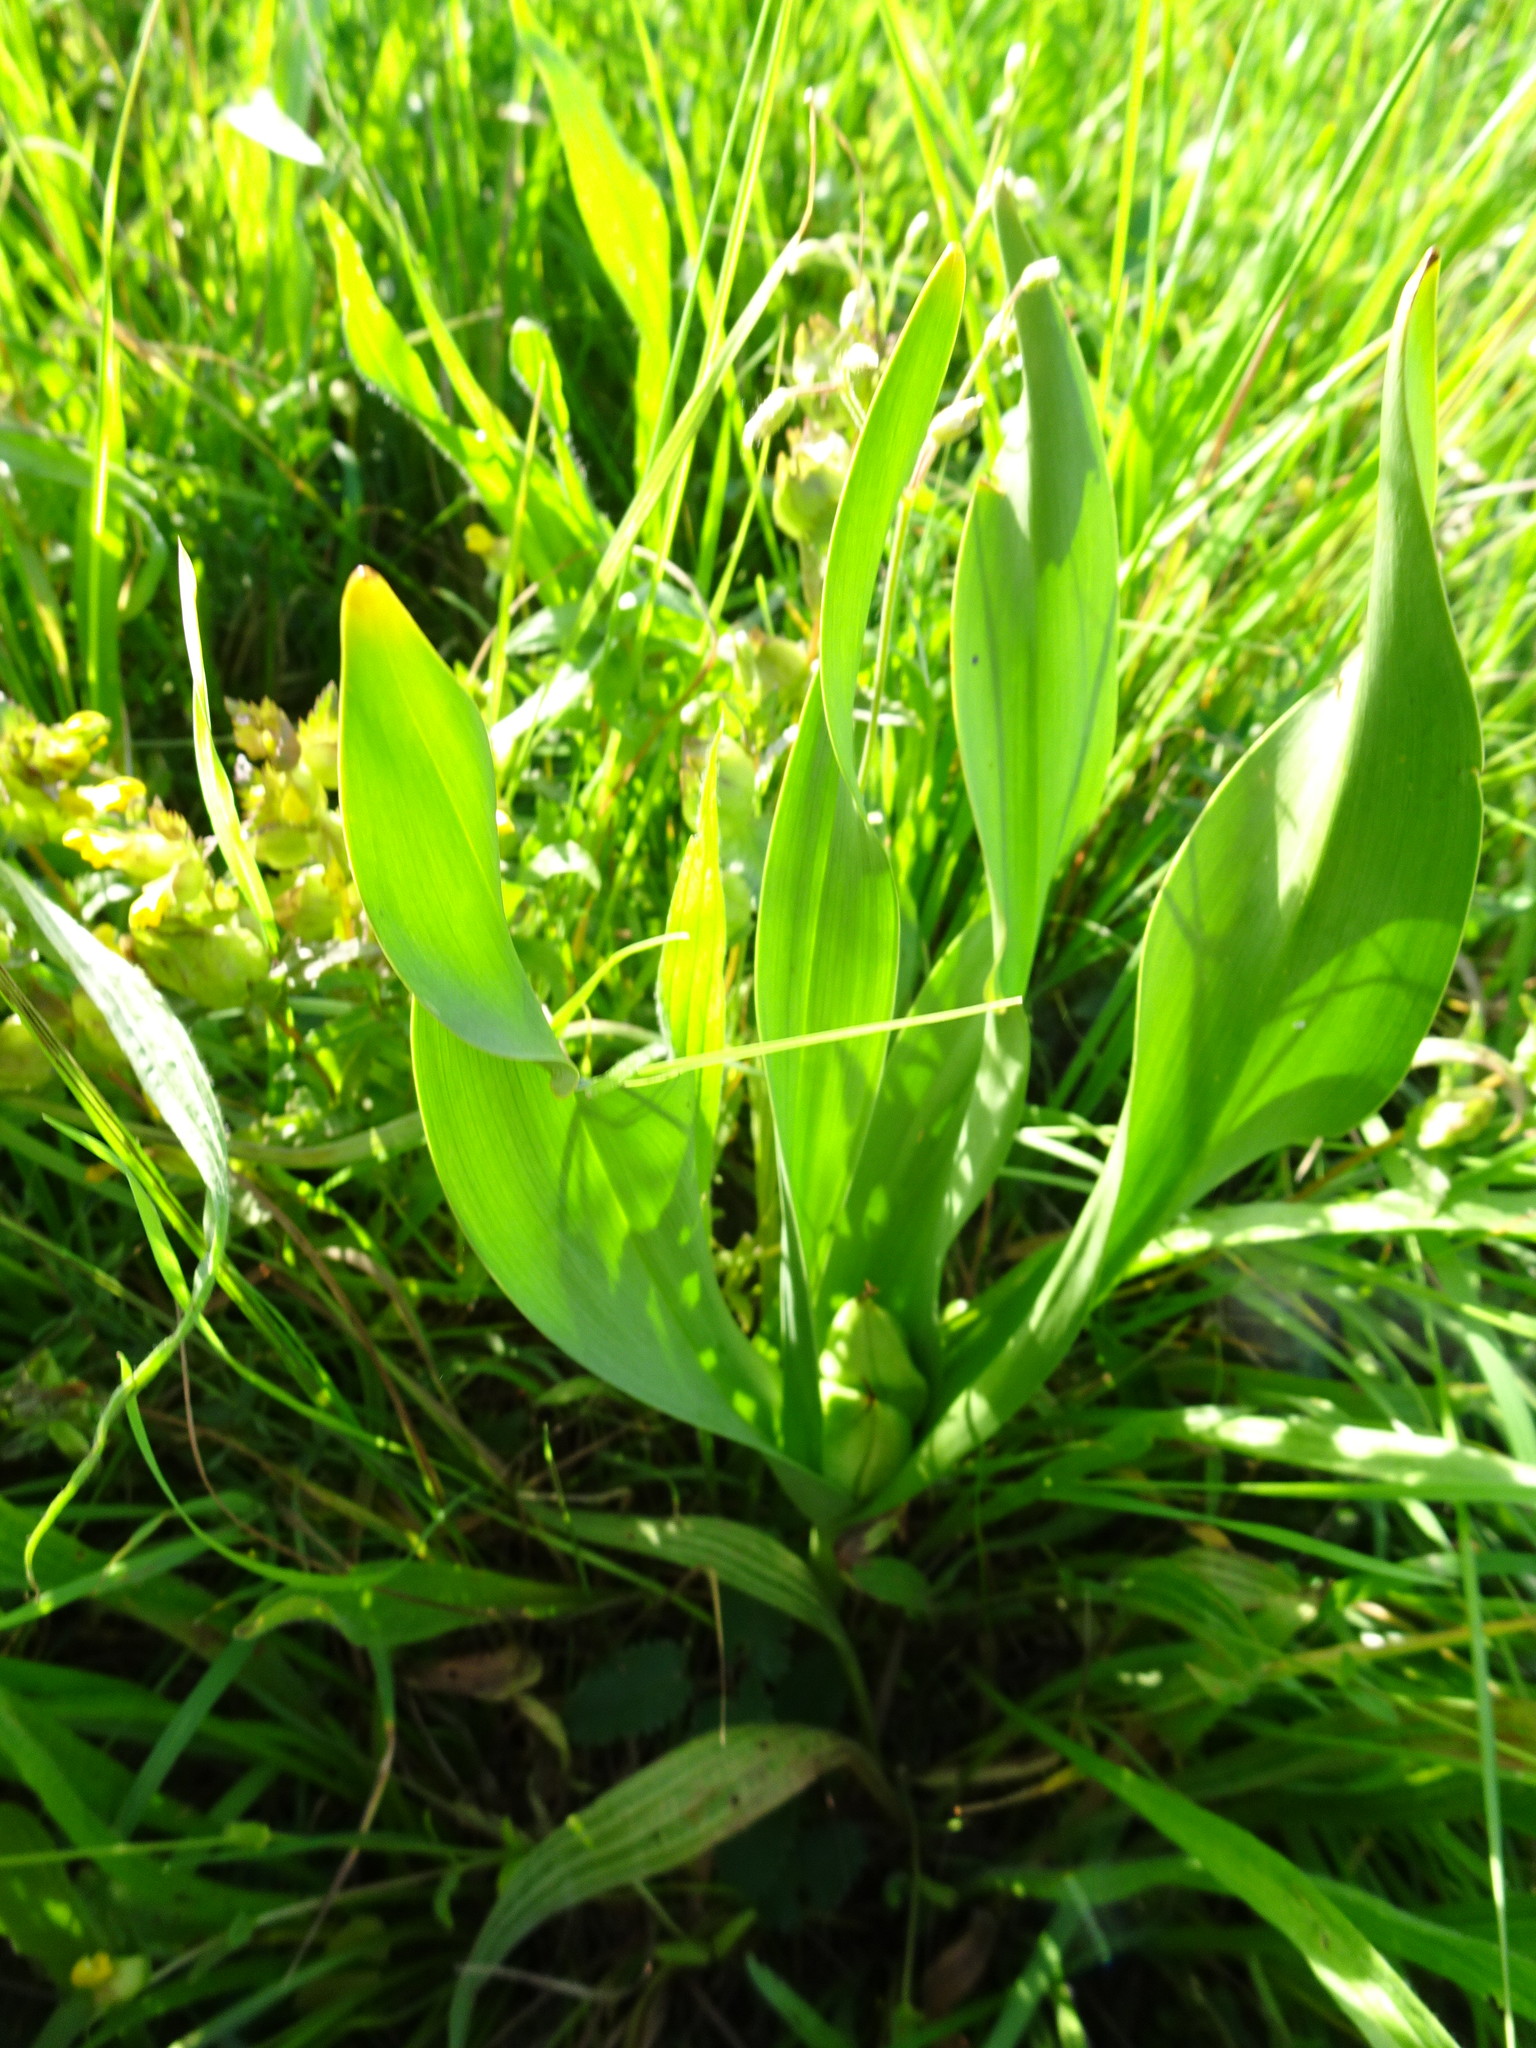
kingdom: Plantae
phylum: Tracheophyta
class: Liliopsida
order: Liliales
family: Colchicaceae
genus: Colchicum
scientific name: Colchicum autumnale
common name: Autumn crocus
